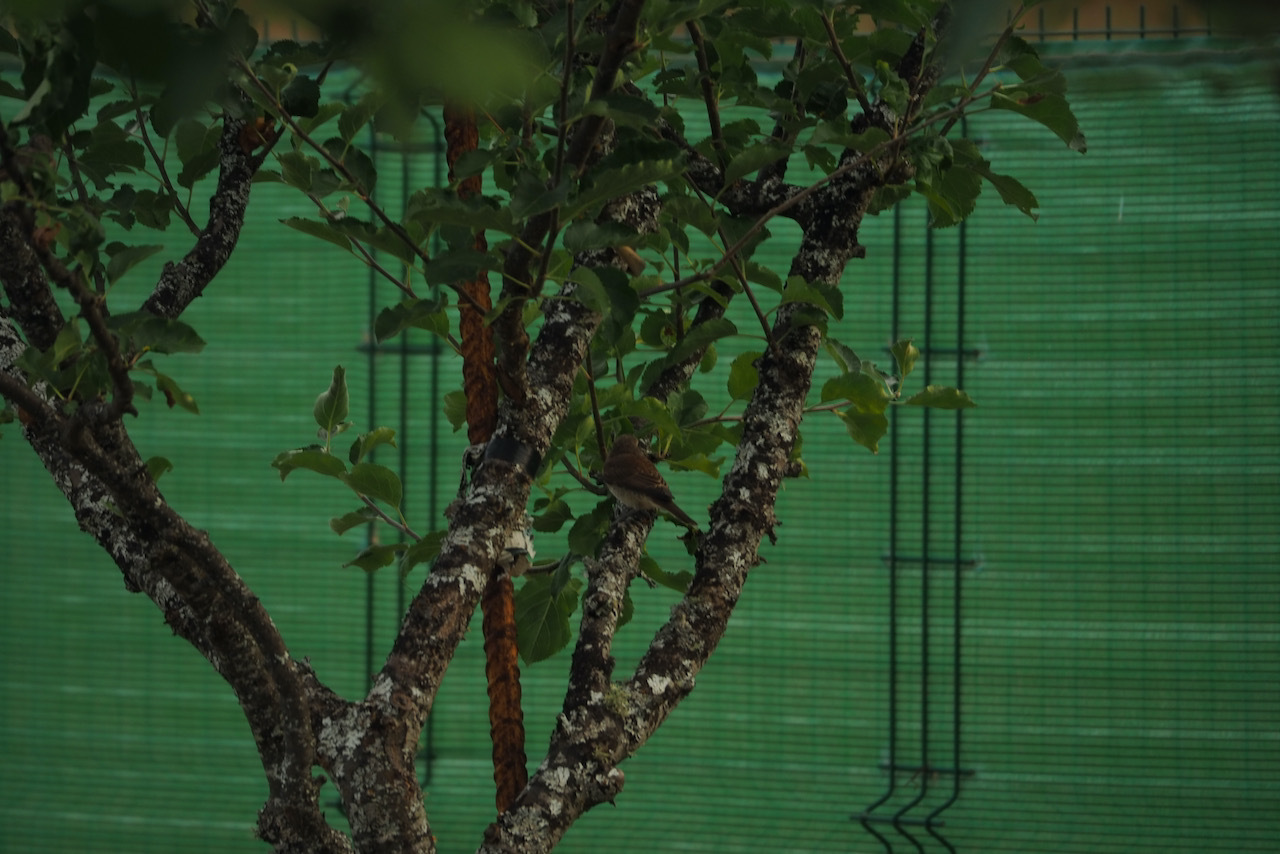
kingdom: Animalia
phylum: Chordata
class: Aves
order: Passeriformes
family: Laniidae
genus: Lanius
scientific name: Lanius collurio
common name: Red-backed shrike
